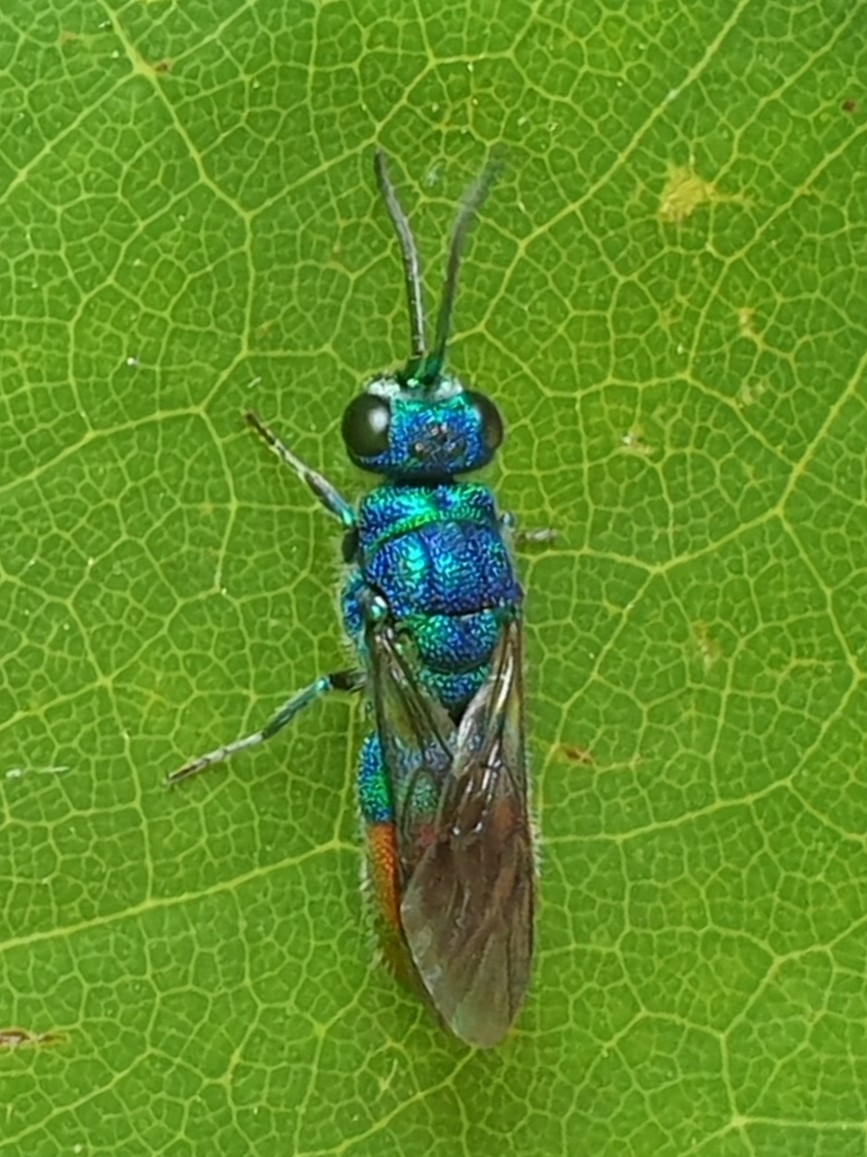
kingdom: Animalia
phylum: Arthropoda
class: Insecta
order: Hymenoptera
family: Chrysididae
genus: Chrysis
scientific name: Chrysis fulgida
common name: Shimmering ruby-tail
